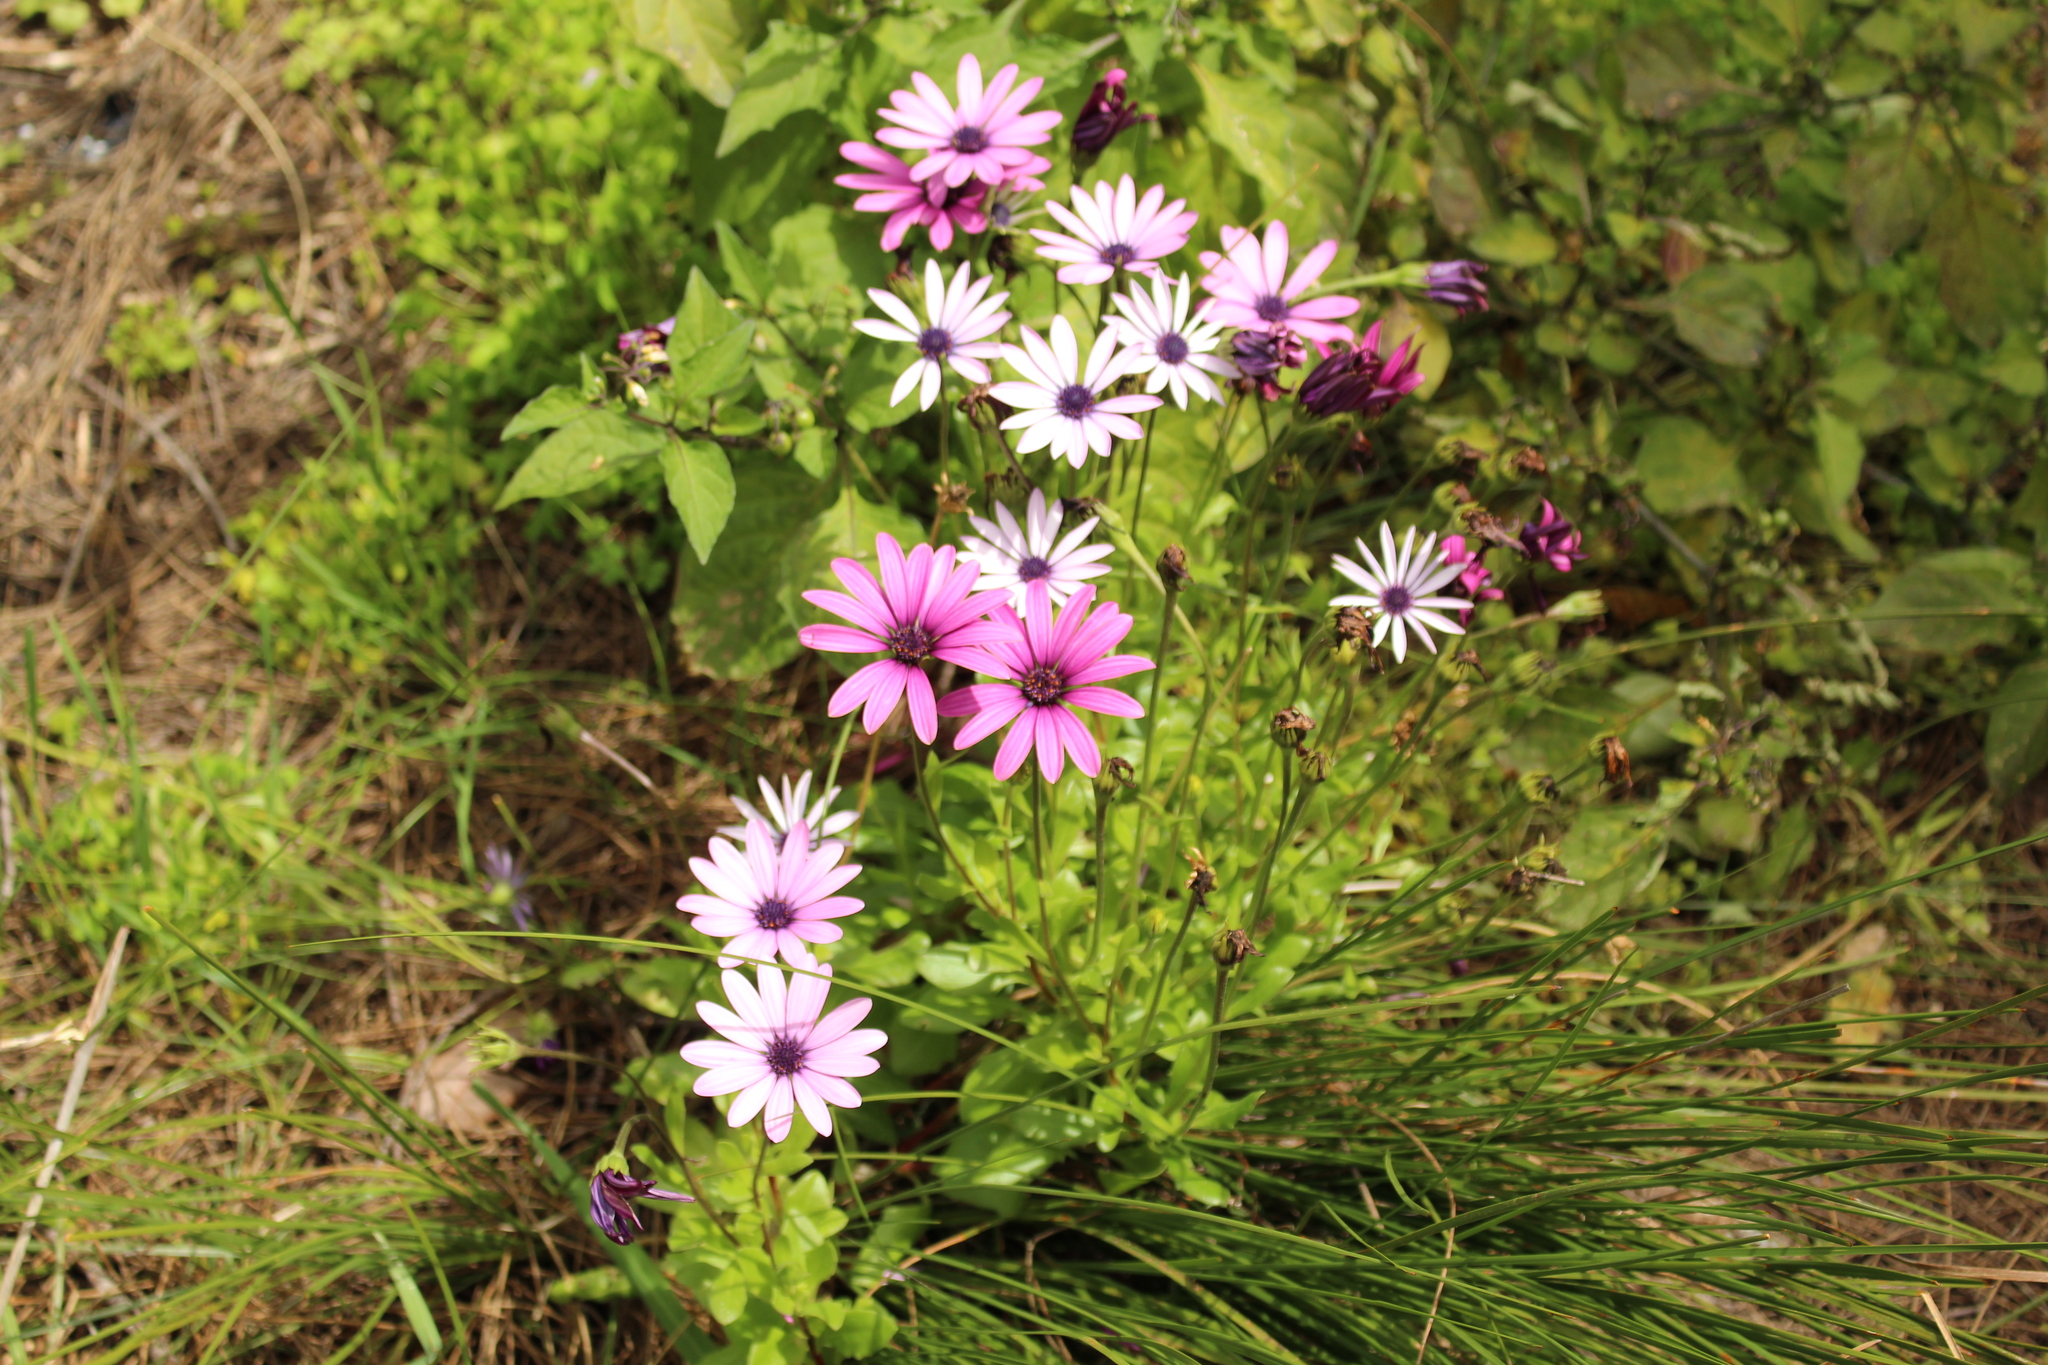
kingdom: Plantae
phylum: Tracheophyta
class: Magnoliopsida
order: Asterales
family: Asteraceae
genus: Dimorphotheca
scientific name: Dimorphotheca ecklonis
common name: Vanstaden's river daisy
